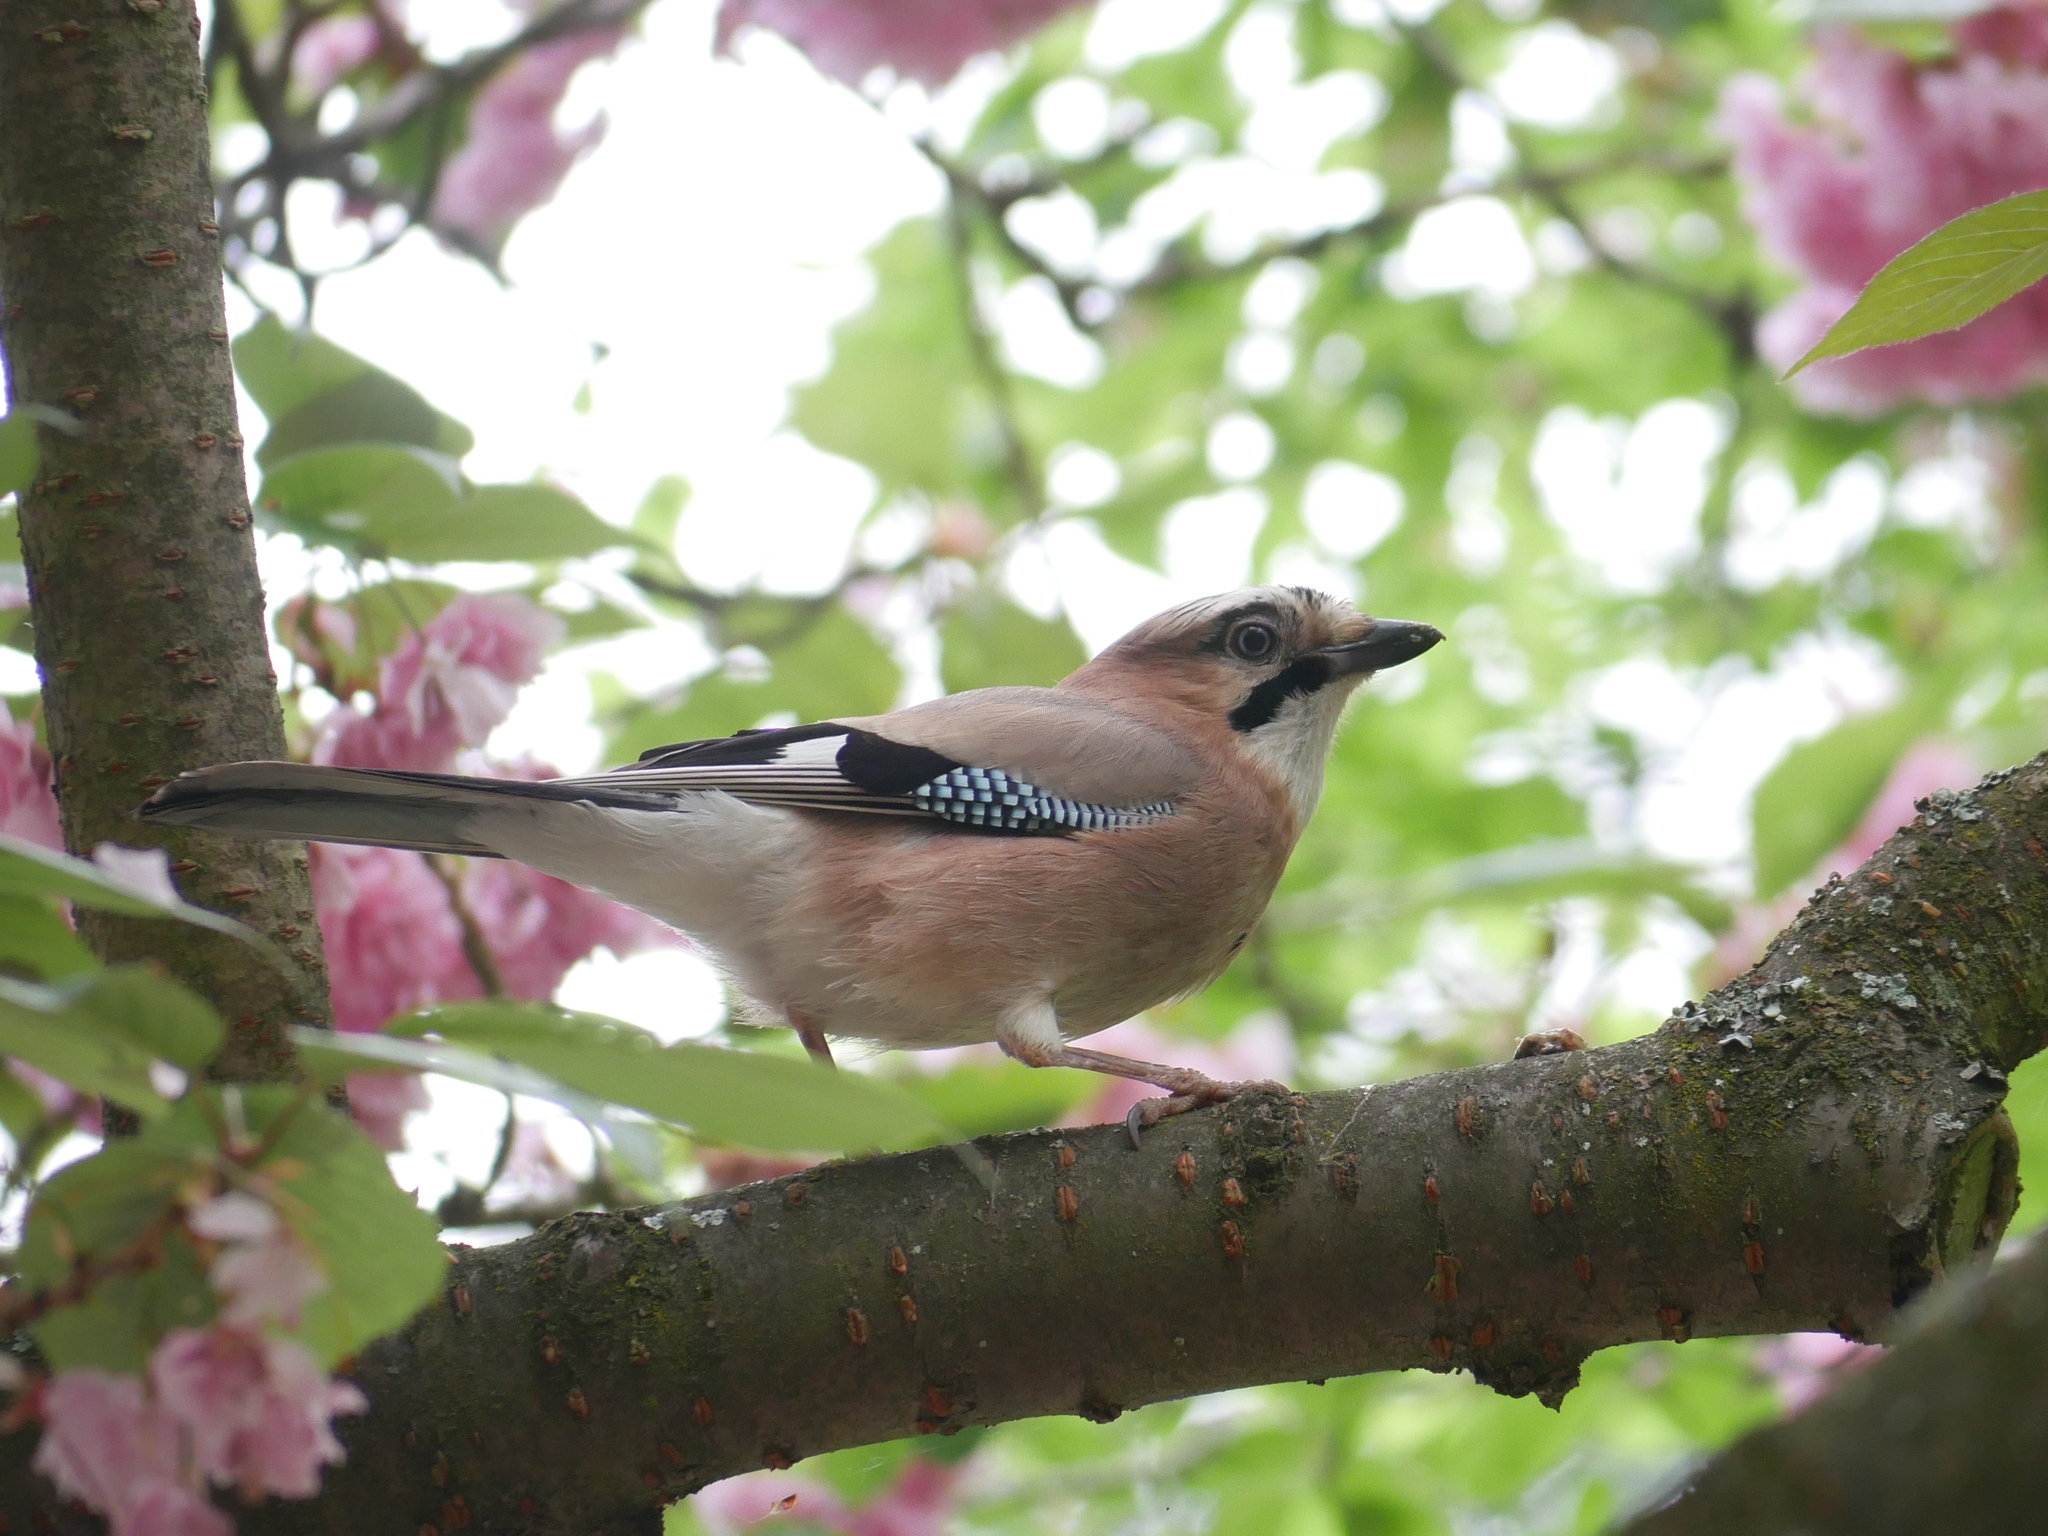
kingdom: Animalia
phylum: Chordata
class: Aves
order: Passeriformes
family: Corvidae
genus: Garrulus
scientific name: Garrulus glandarius
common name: Eurasian jay
